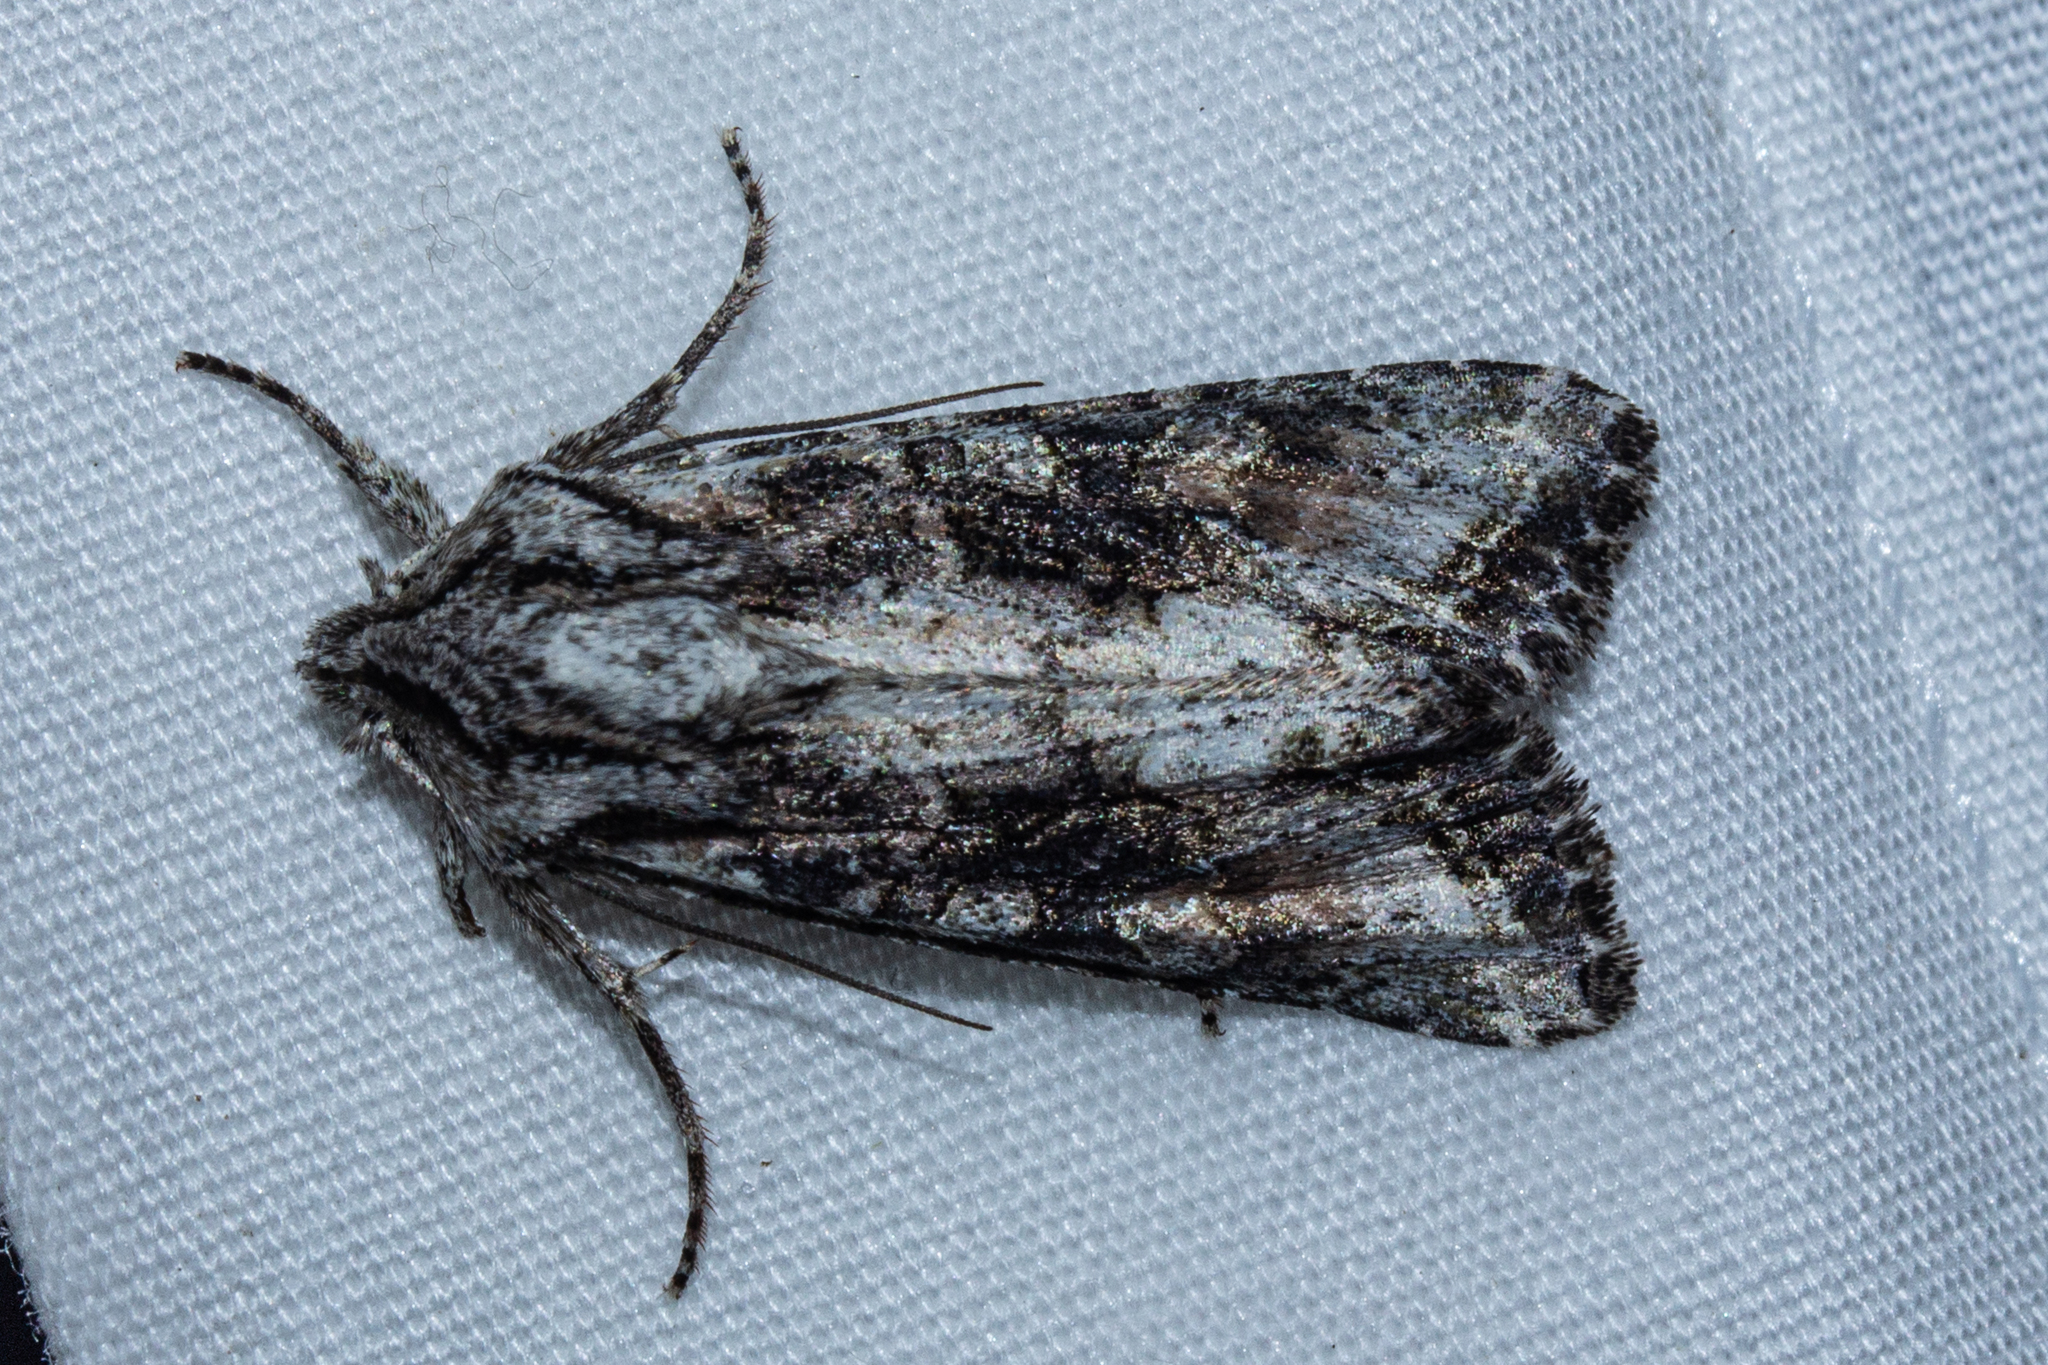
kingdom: Animalia
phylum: Arthropoda
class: Insecta
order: Lepidoptera
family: Noctuidae
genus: Ichneutica
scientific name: Ichneutica mutans
